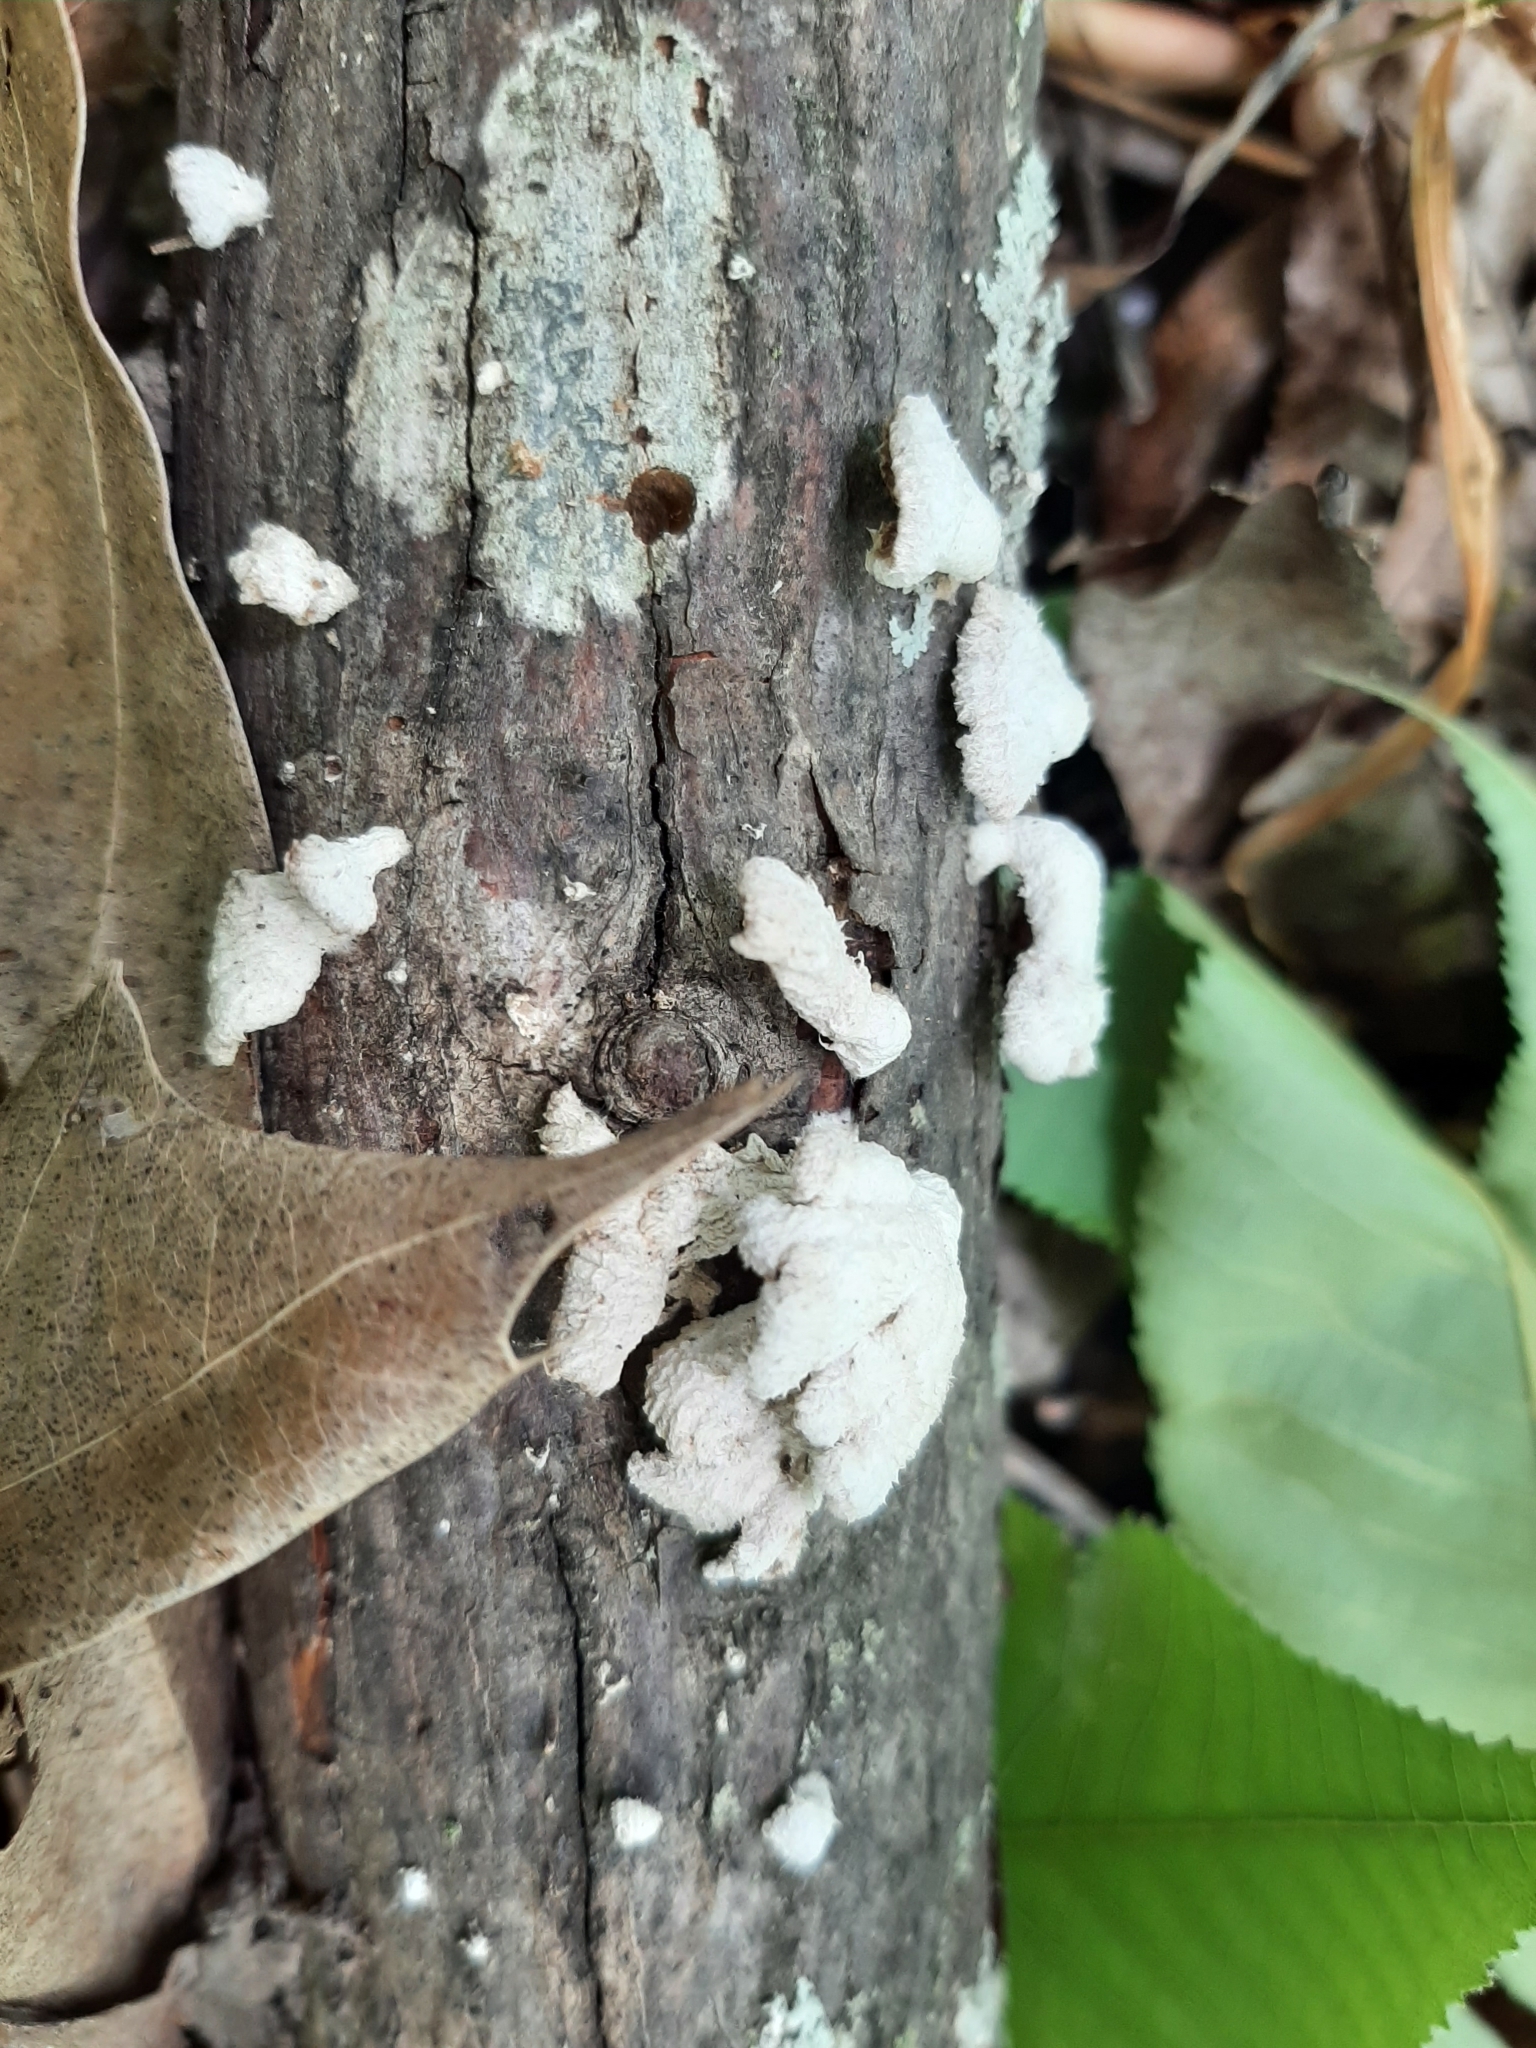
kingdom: Fungi
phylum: Basidiomycota
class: Agaricomycetes
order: Agaricales
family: Schizophyllaceae
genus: Schizophyllum
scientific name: Schizophyllum commune
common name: Common porecrust
